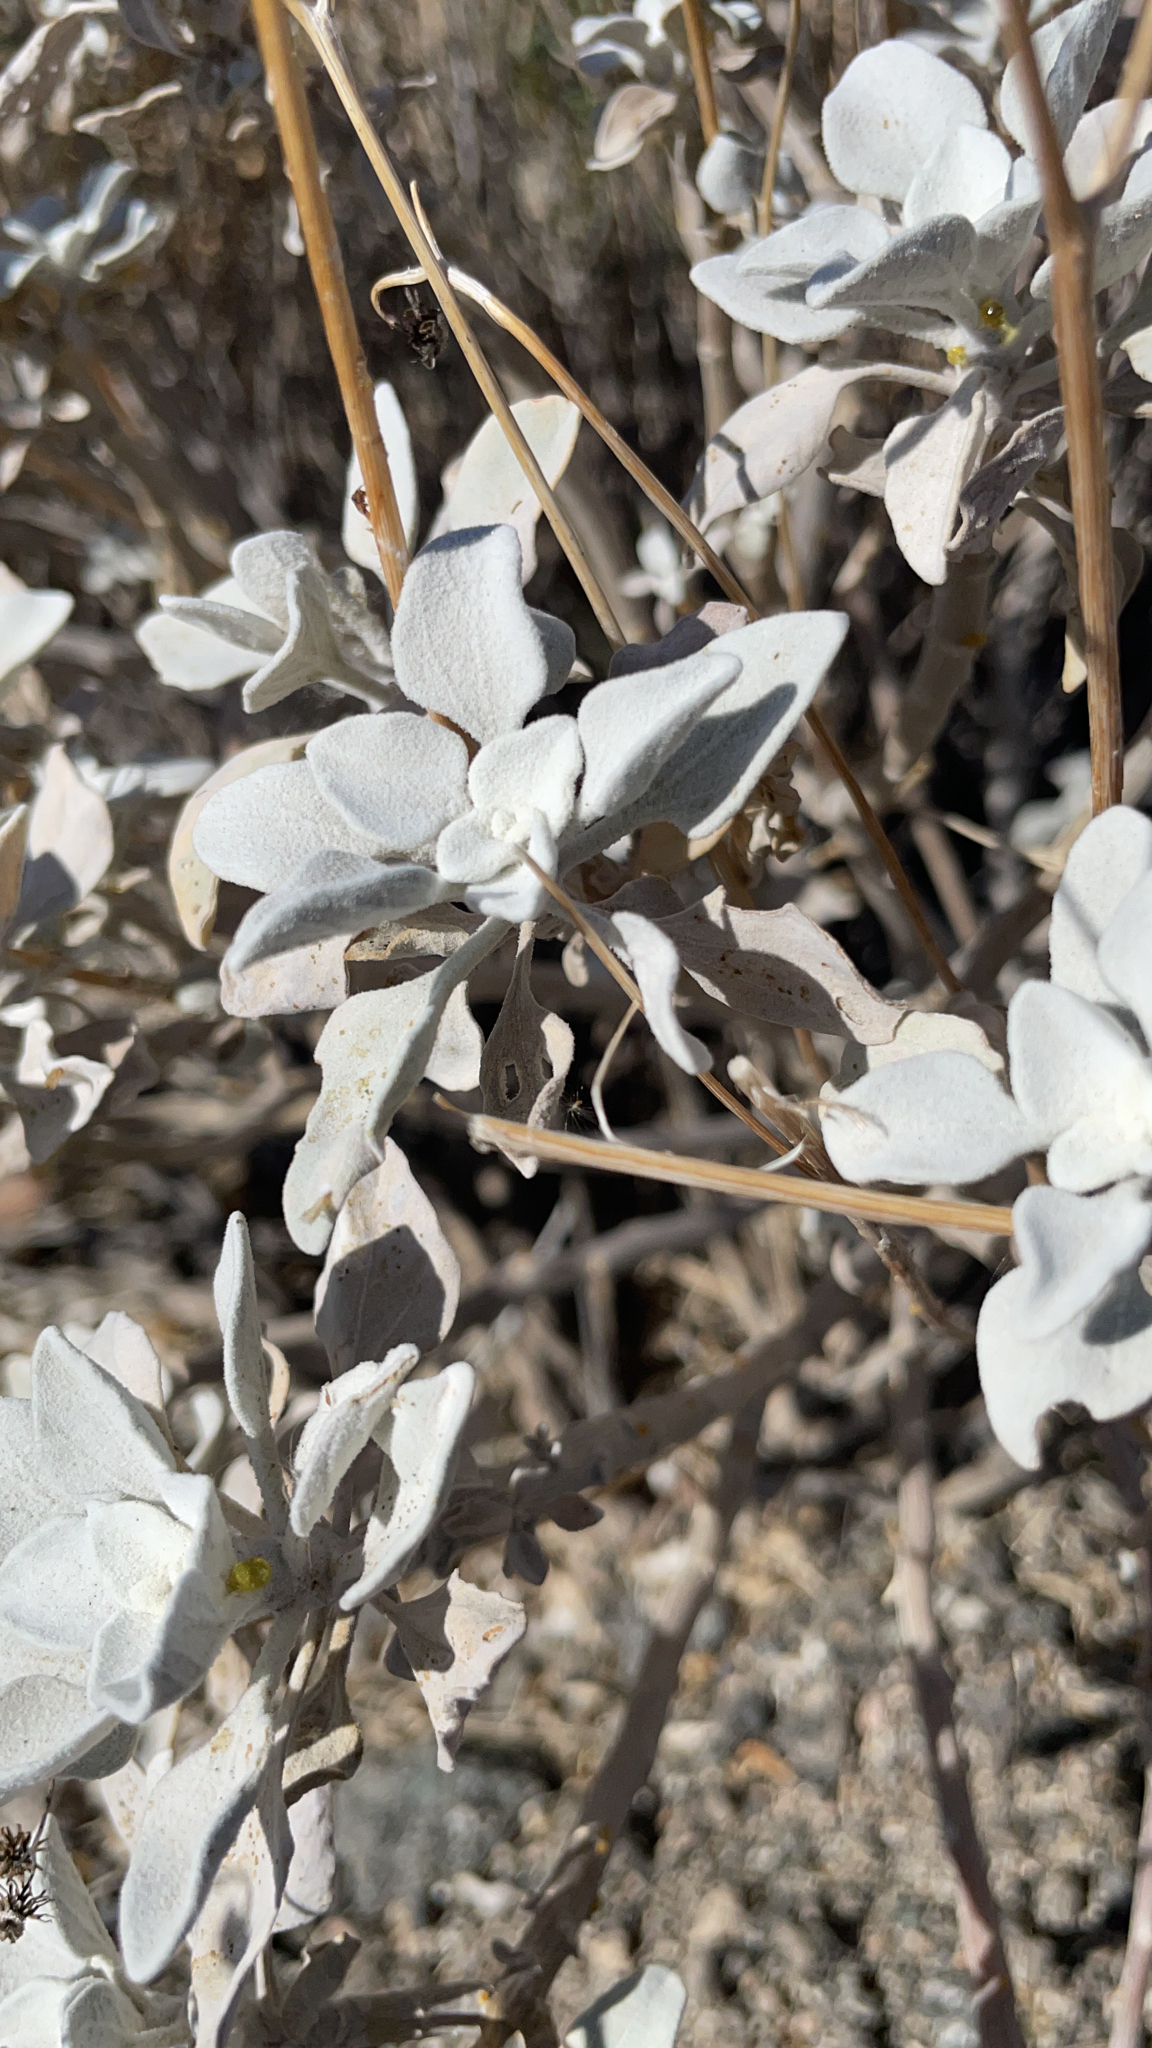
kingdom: Plantae
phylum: Tracheophyta
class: Magnoliopsida
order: Asterales
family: Asteraceae
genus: Encelia
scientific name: Encelia farinosa
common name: Brittlebush
